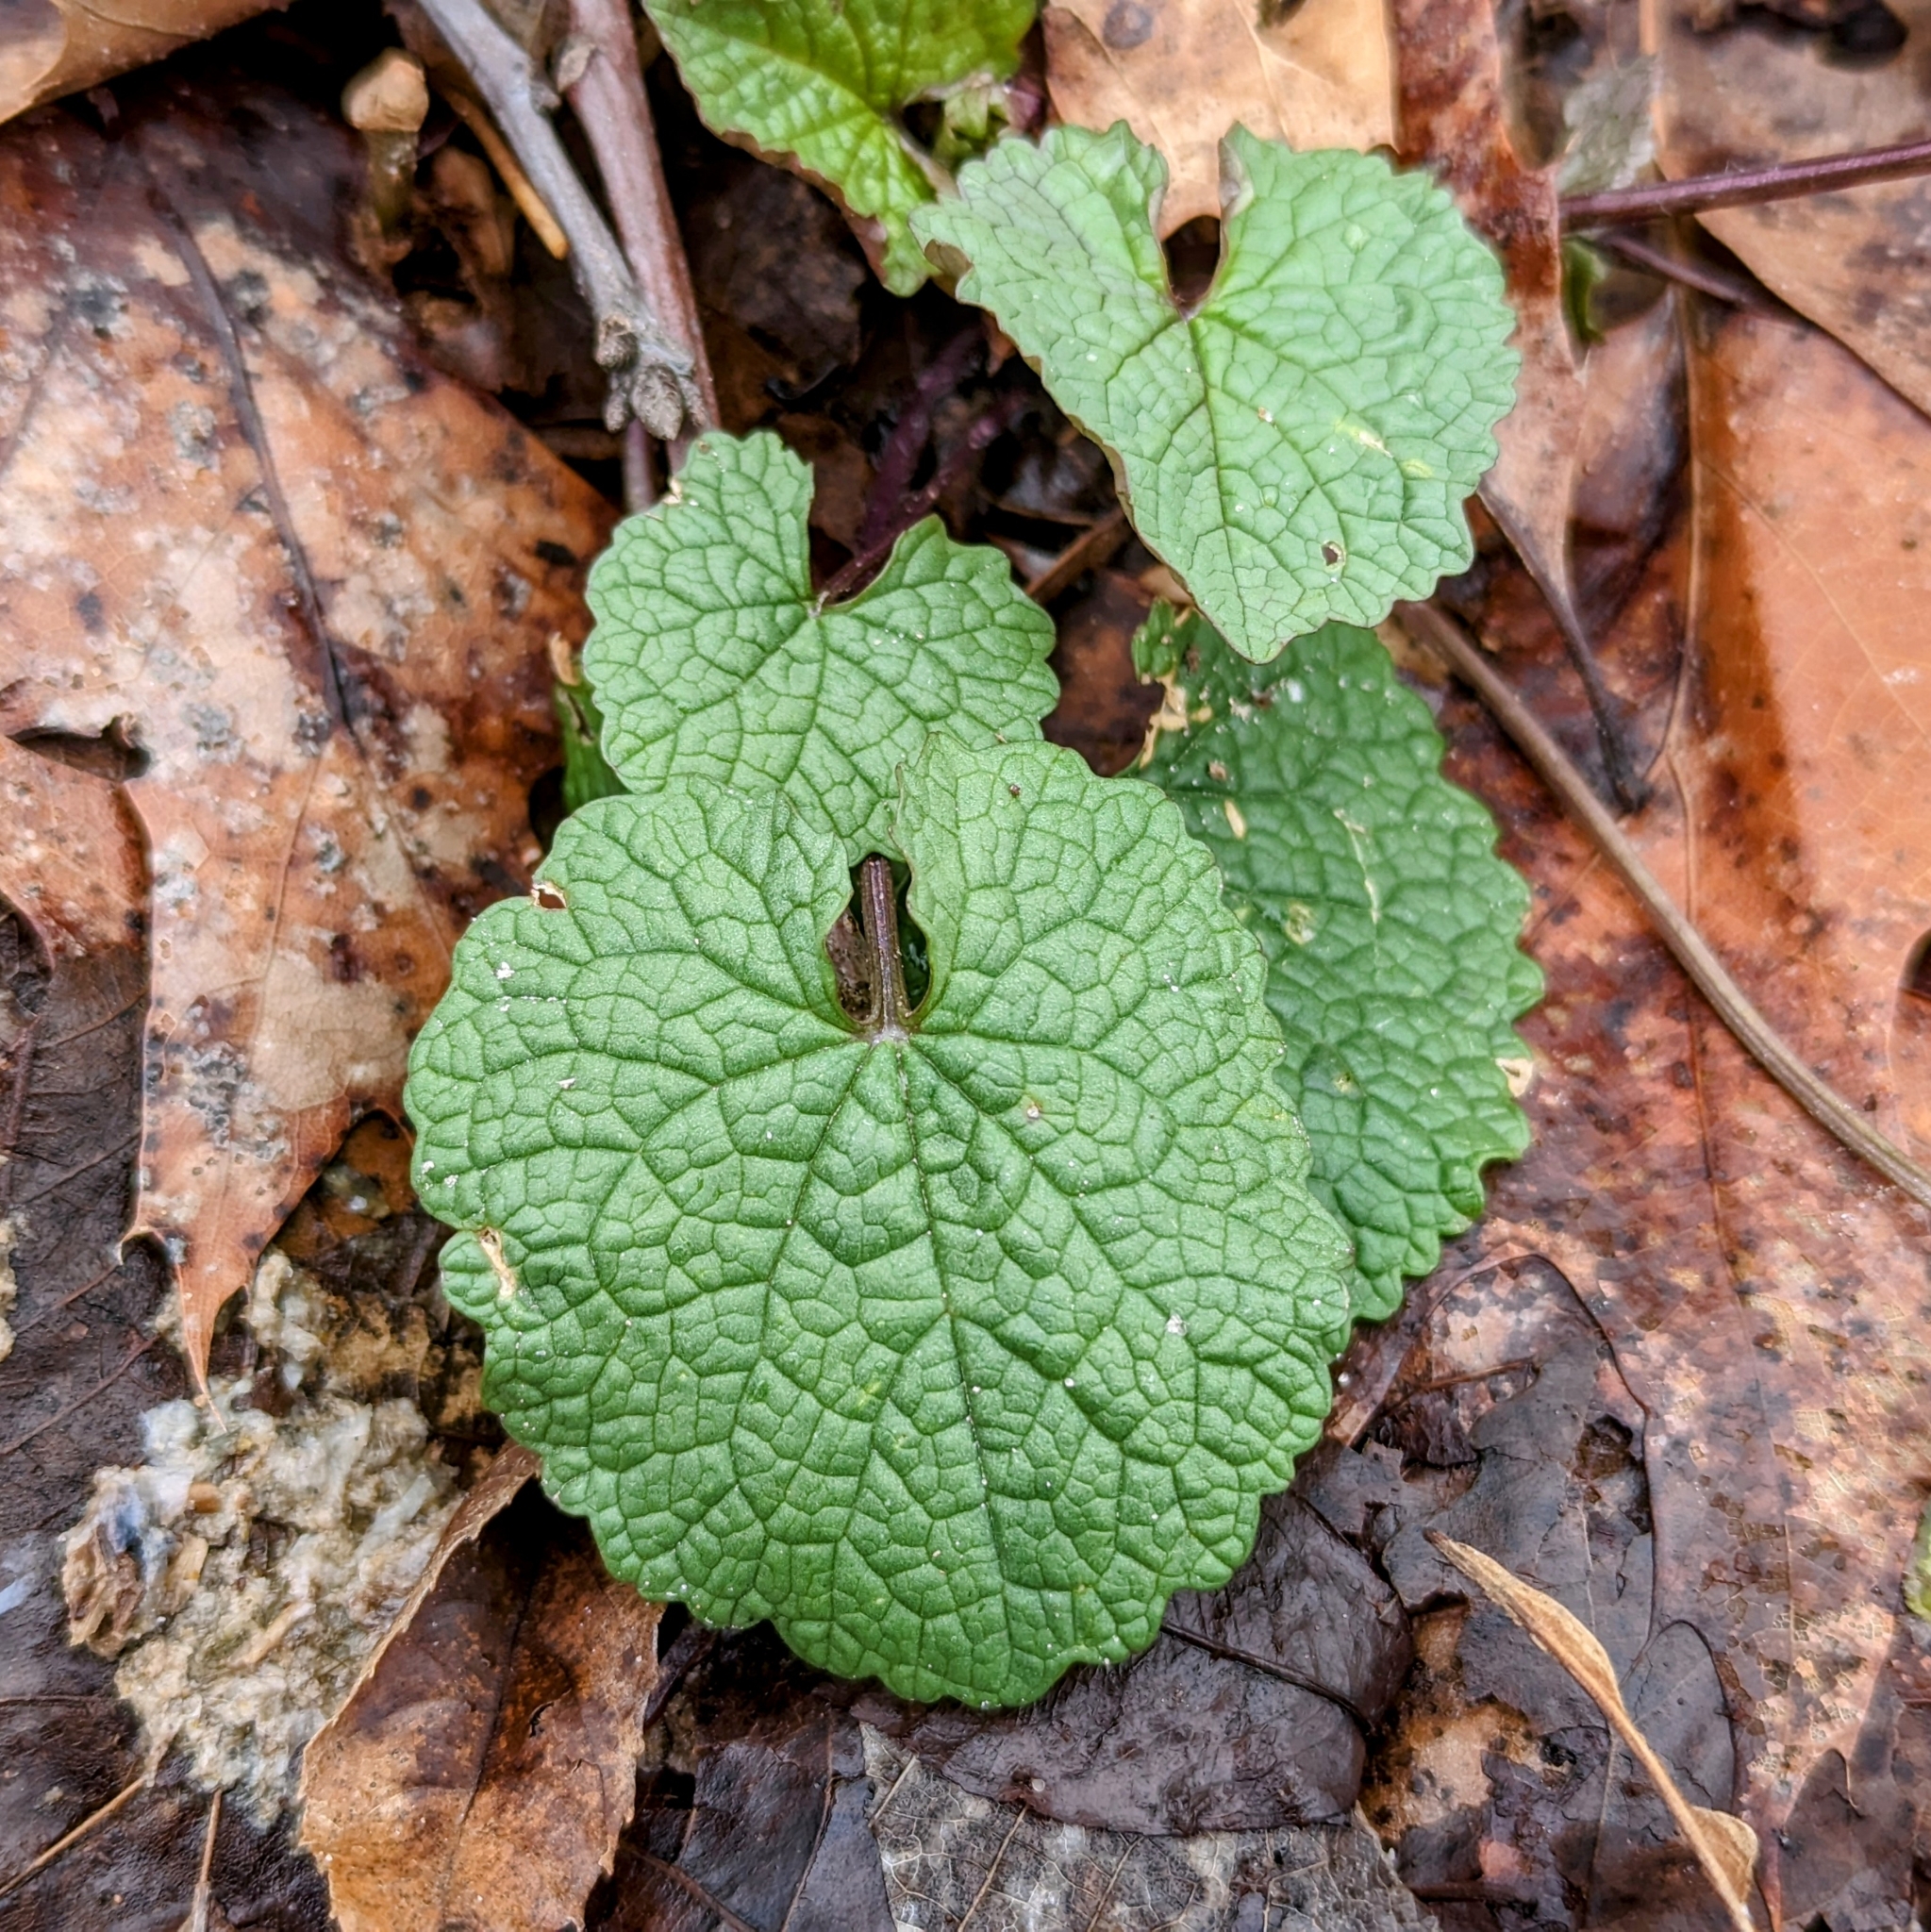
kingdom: Plantae
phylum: Tracheophyta
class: Magnoliopsida
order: Brassicales
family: Brassicaceae
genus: Alliaria
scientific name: Alliaria petiolata
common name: Garlic mustard
